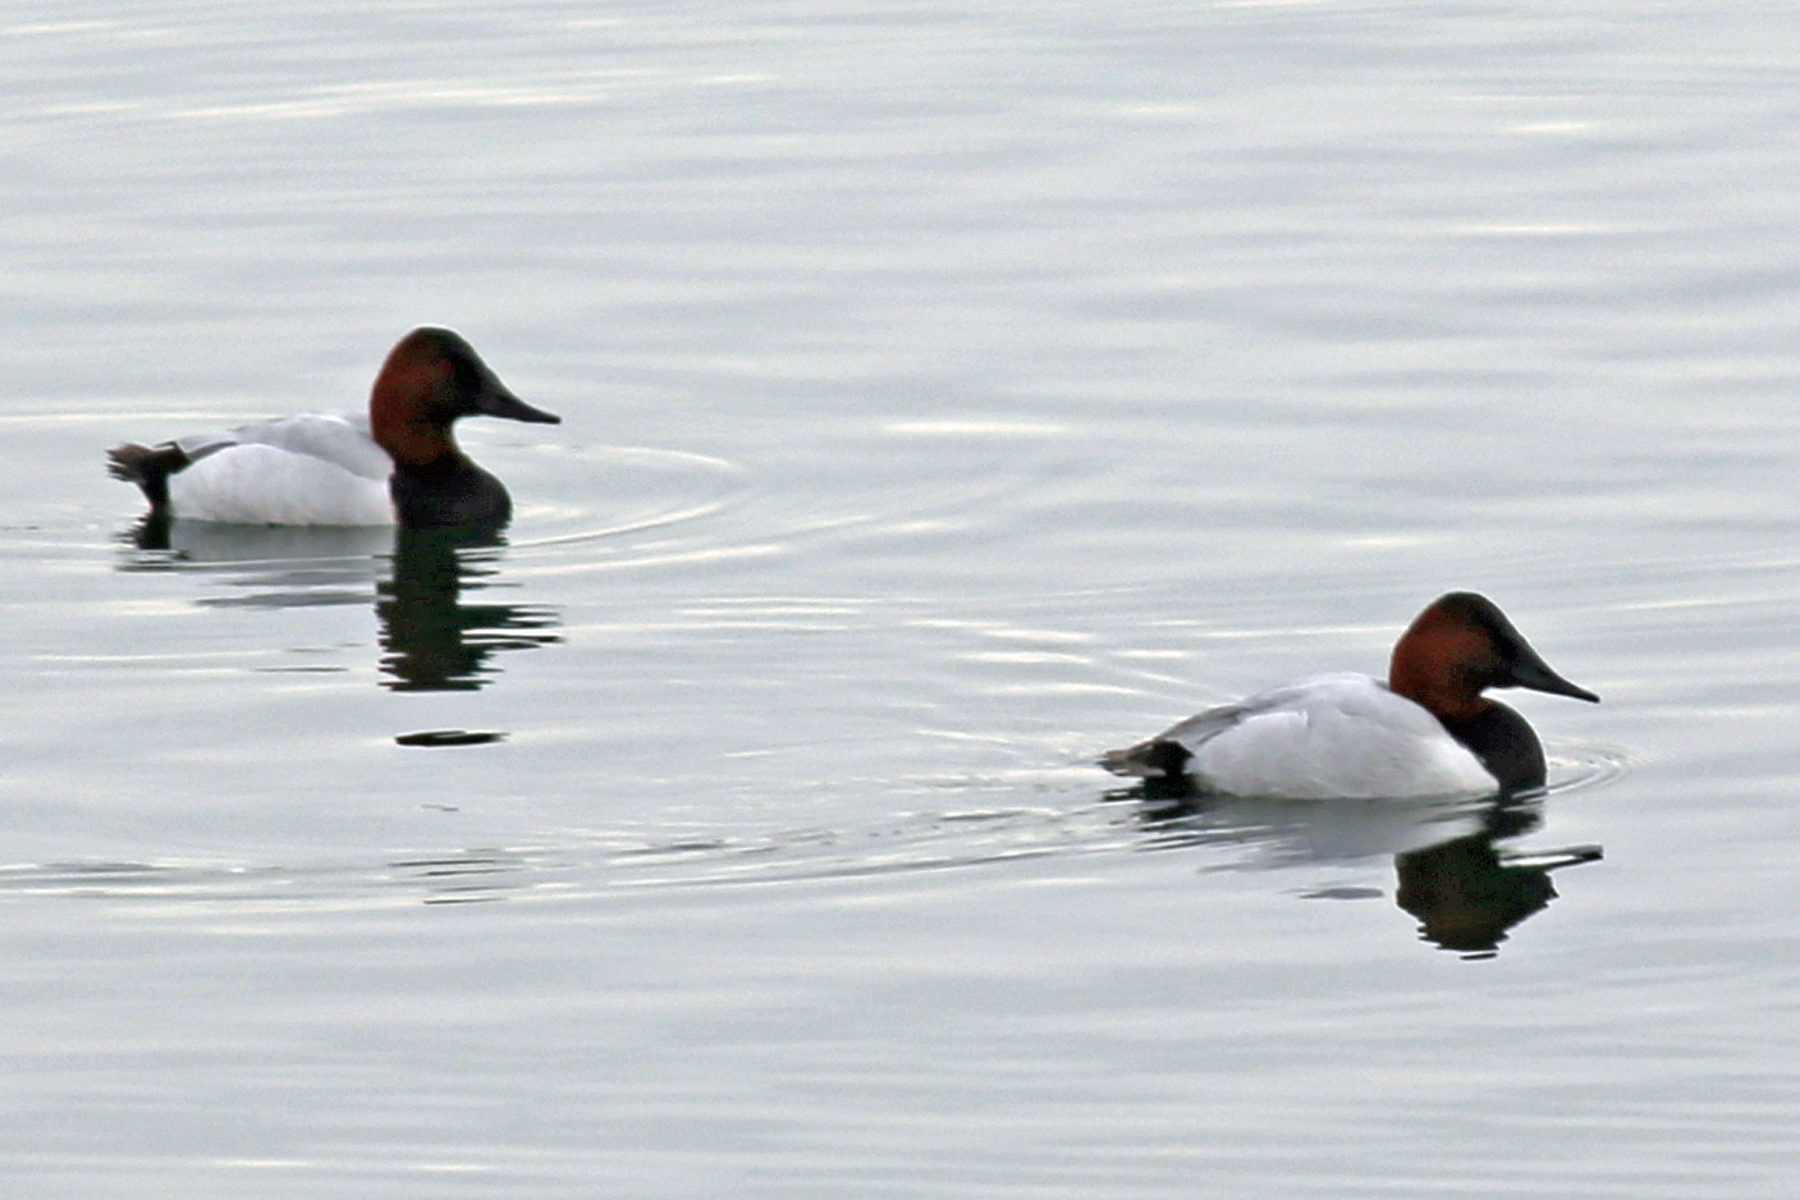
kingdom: Animalia
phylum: Chordata
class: Aves
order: Anseriformes
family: Anatidae
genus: Aythya
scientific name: Aythya valisineria
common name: Canvasback
